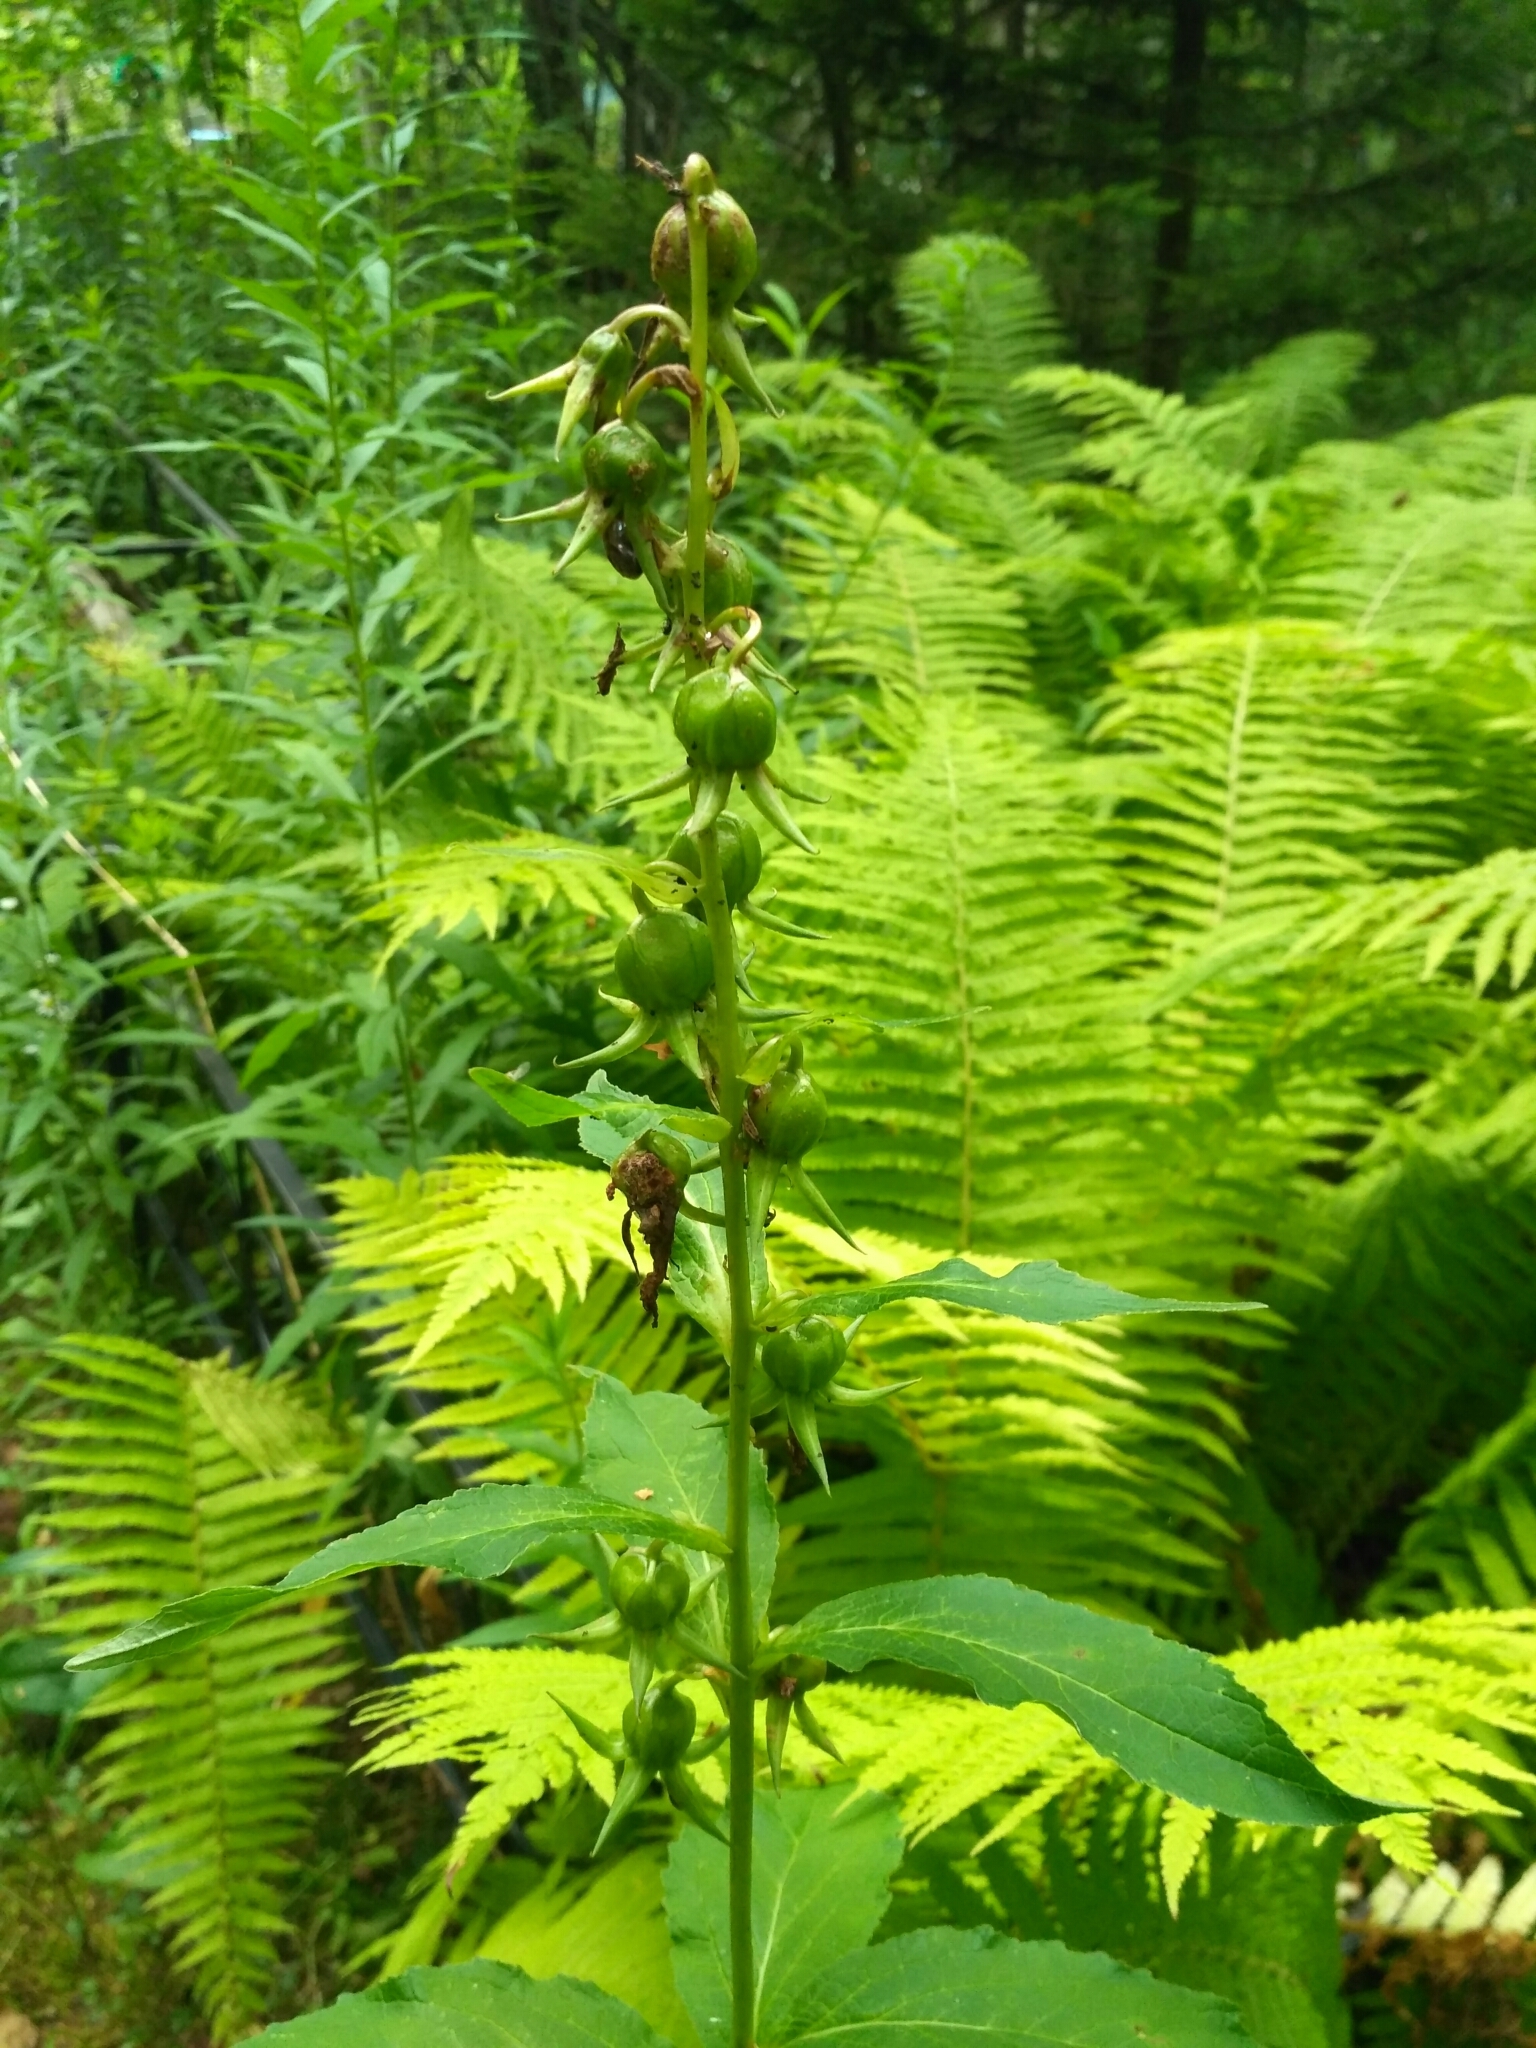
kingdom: Plantae
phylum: Tracheophyta
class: Magnoliopsida
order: Asterales
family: Campanulaceae
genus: Campanula
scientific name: Campanula latifolia
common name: Giant bellflower
